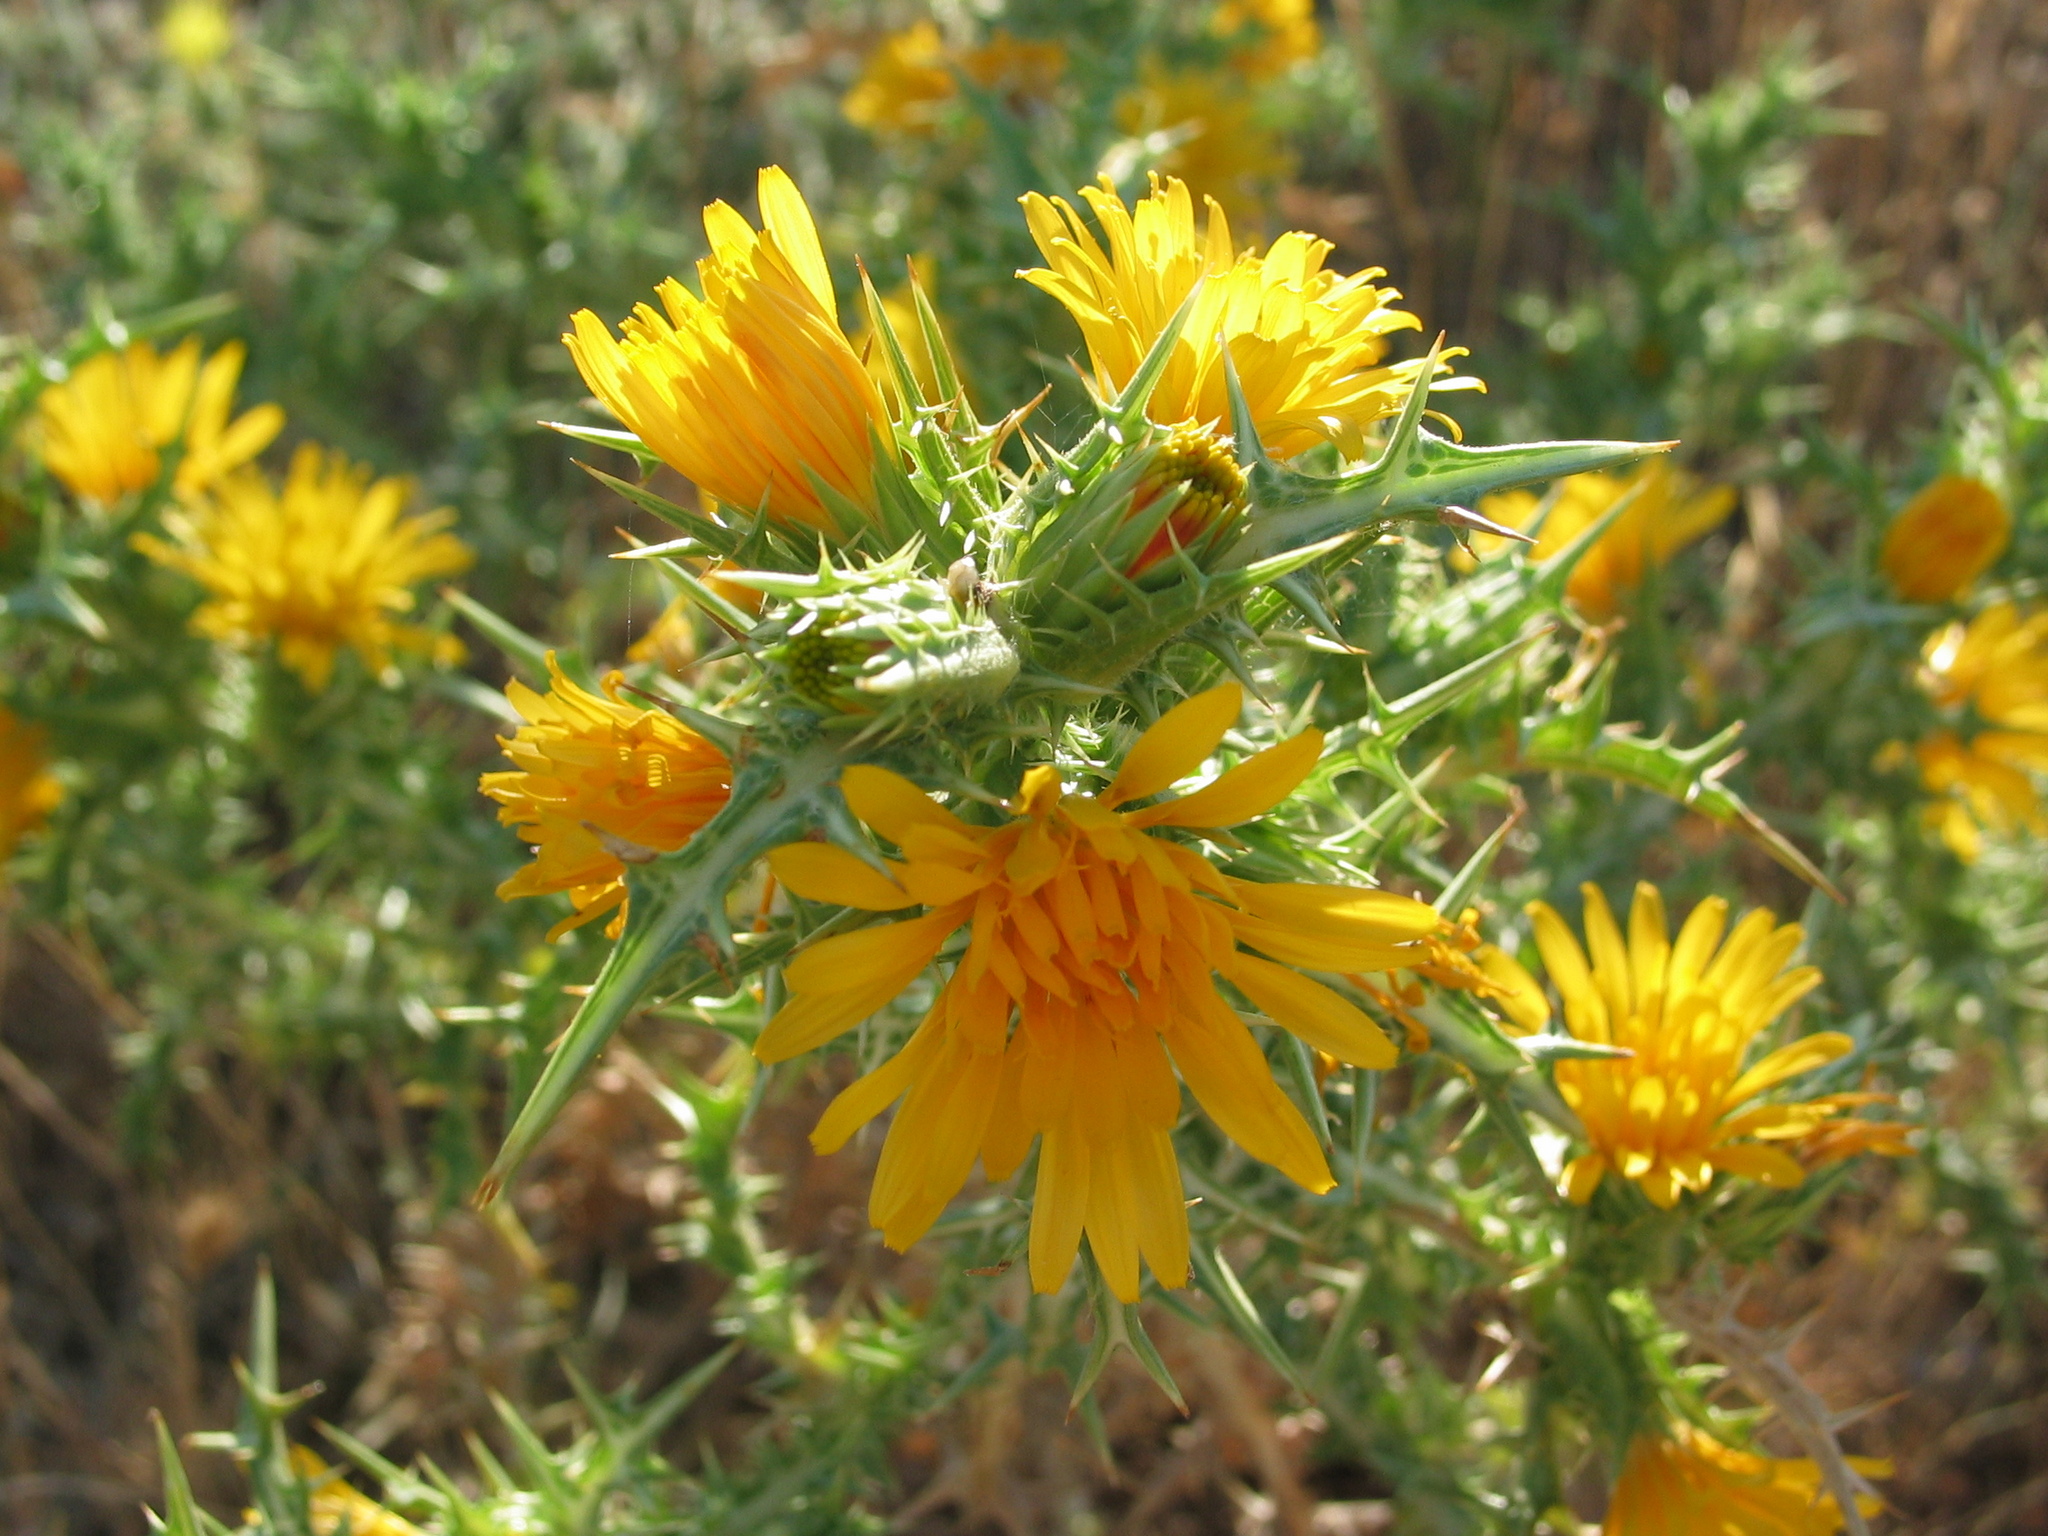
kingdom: Plantae
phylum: Tracheophyta
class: Magnoliopsida
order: Asterales
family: Asteraceae
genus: Scolymus
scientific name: Scolymus hispanicus
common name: Golden thistle
